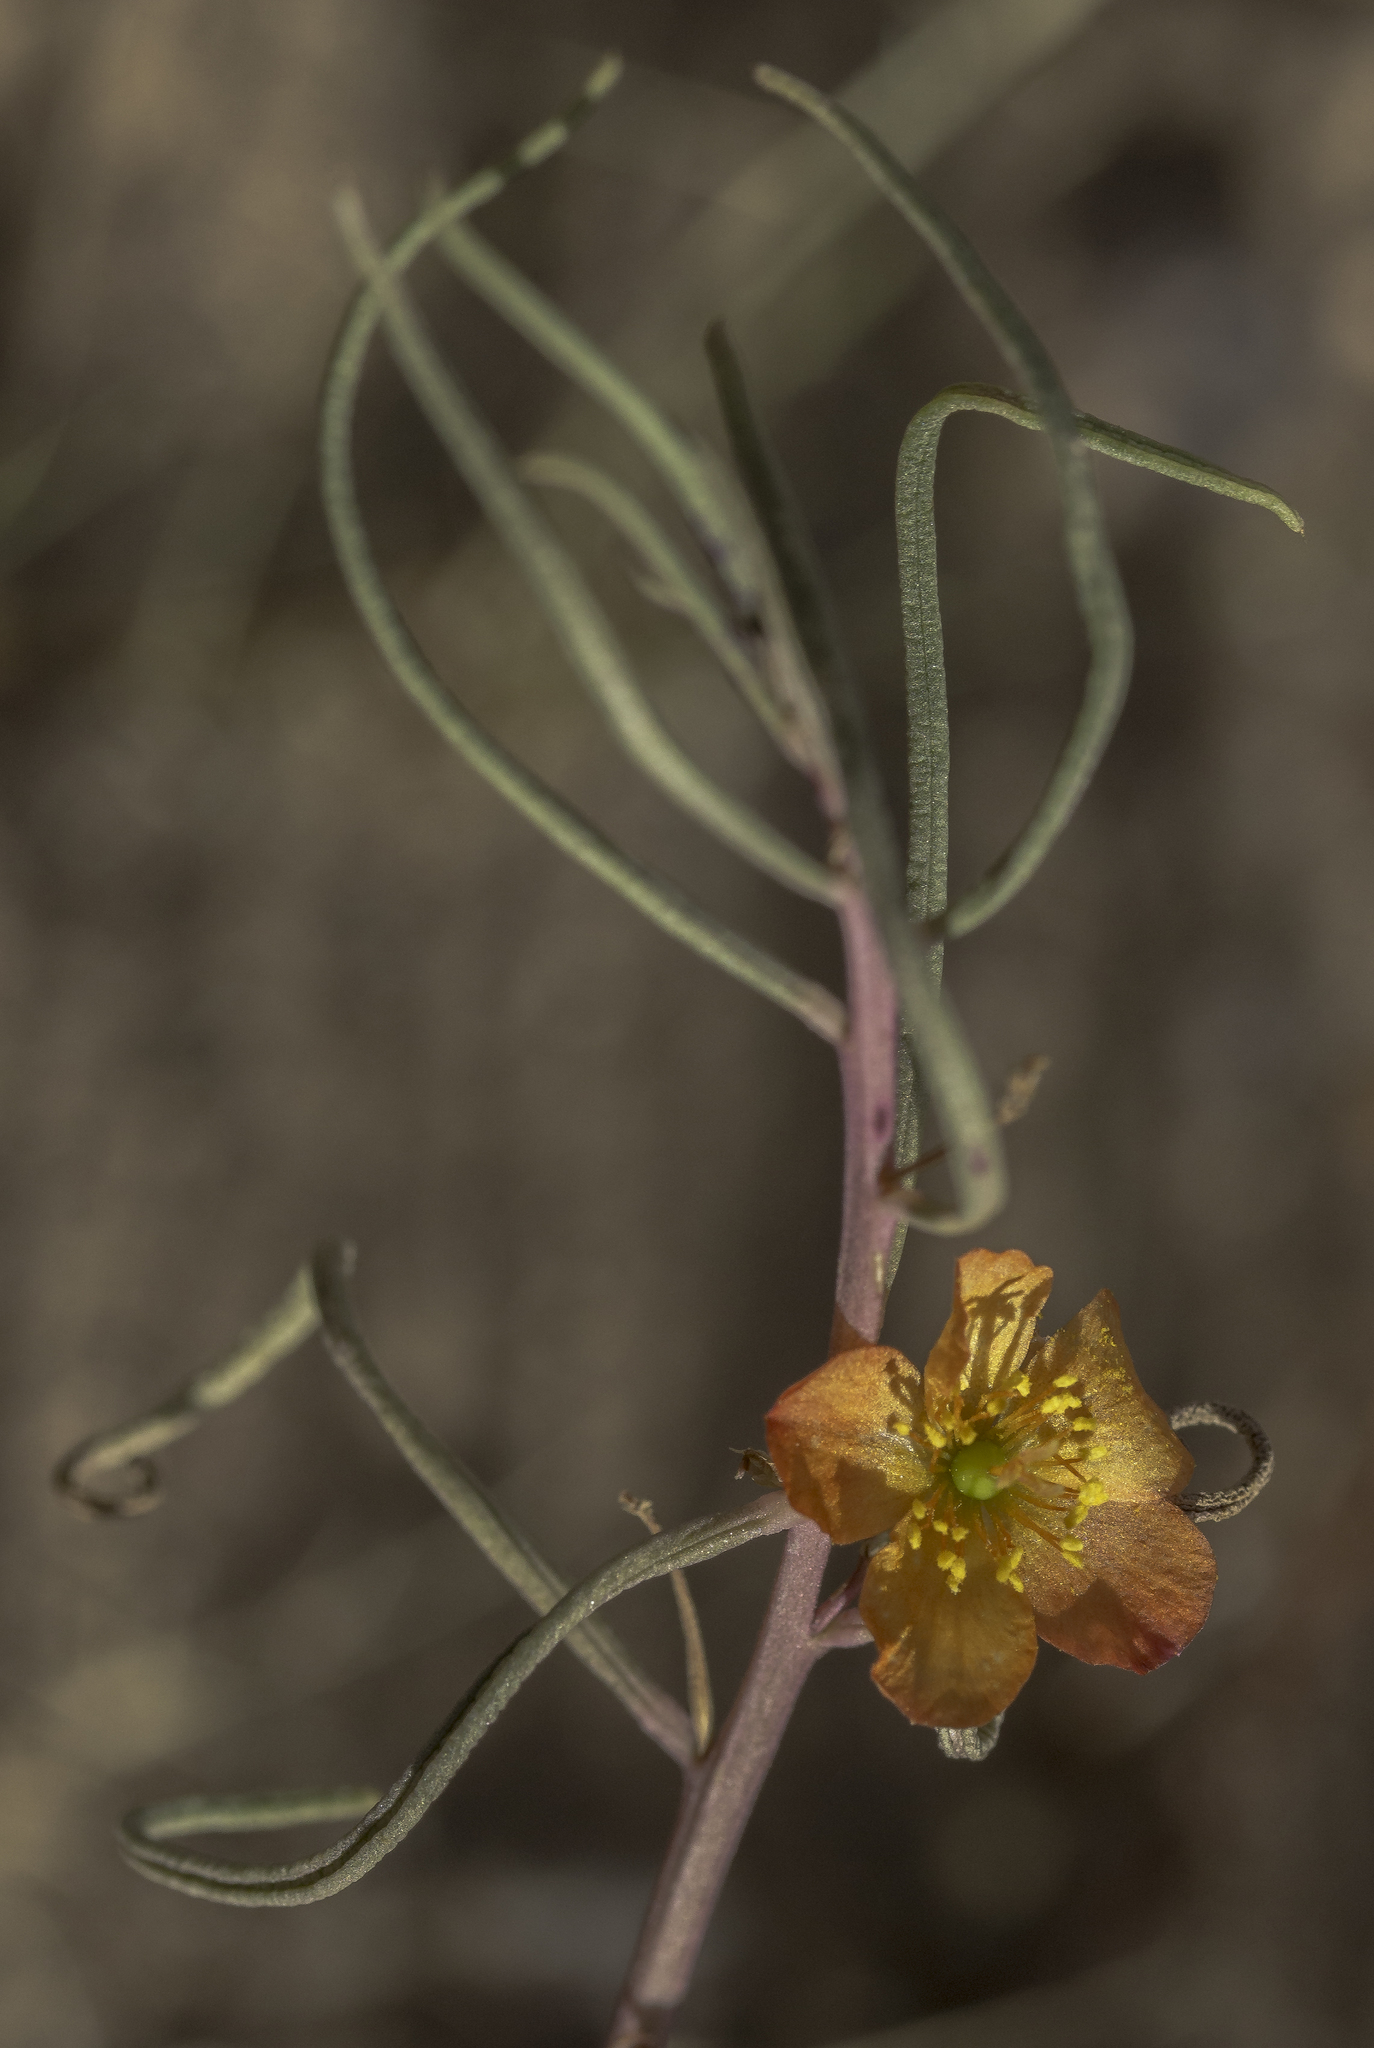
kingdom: Plantae
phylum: Tracheophyta
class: Magnoliopsida
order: Caryophyllales
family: Montiaceae
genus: Phemeranthus
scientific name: Phemeranthus aurantiacus
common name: Orange fameflower
